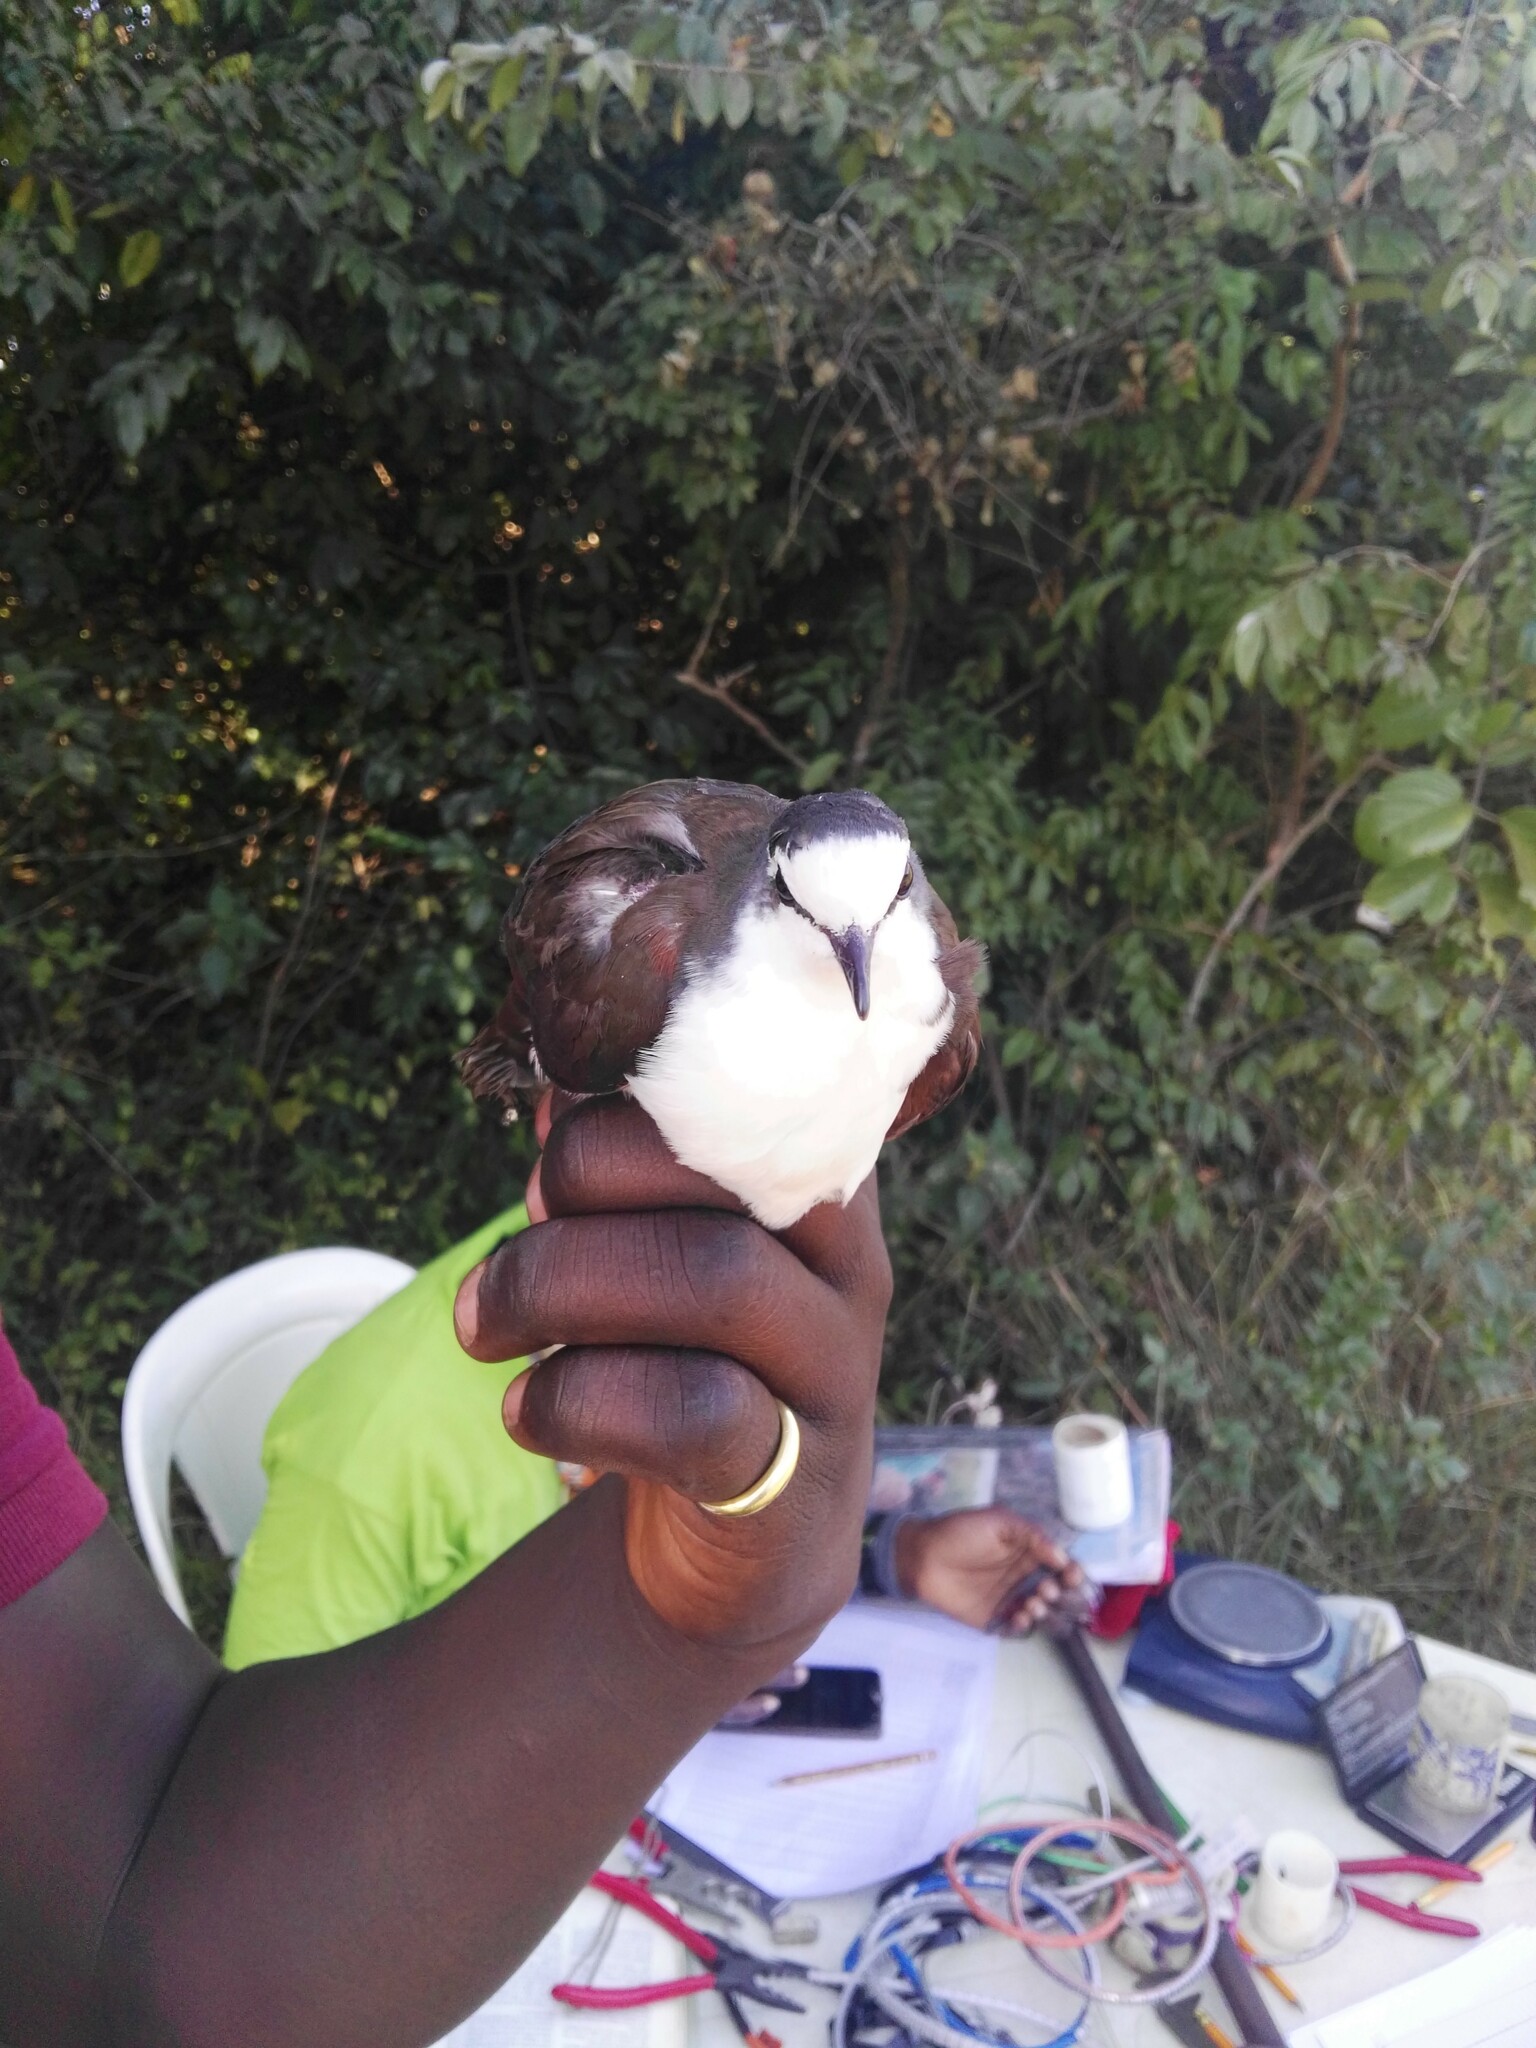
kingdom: Animalia
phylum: Chordata
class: Aves
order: Columbiformes
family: Columbidae
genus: Turtur
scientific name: Turtur tympanistria
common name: Tambourine dove
